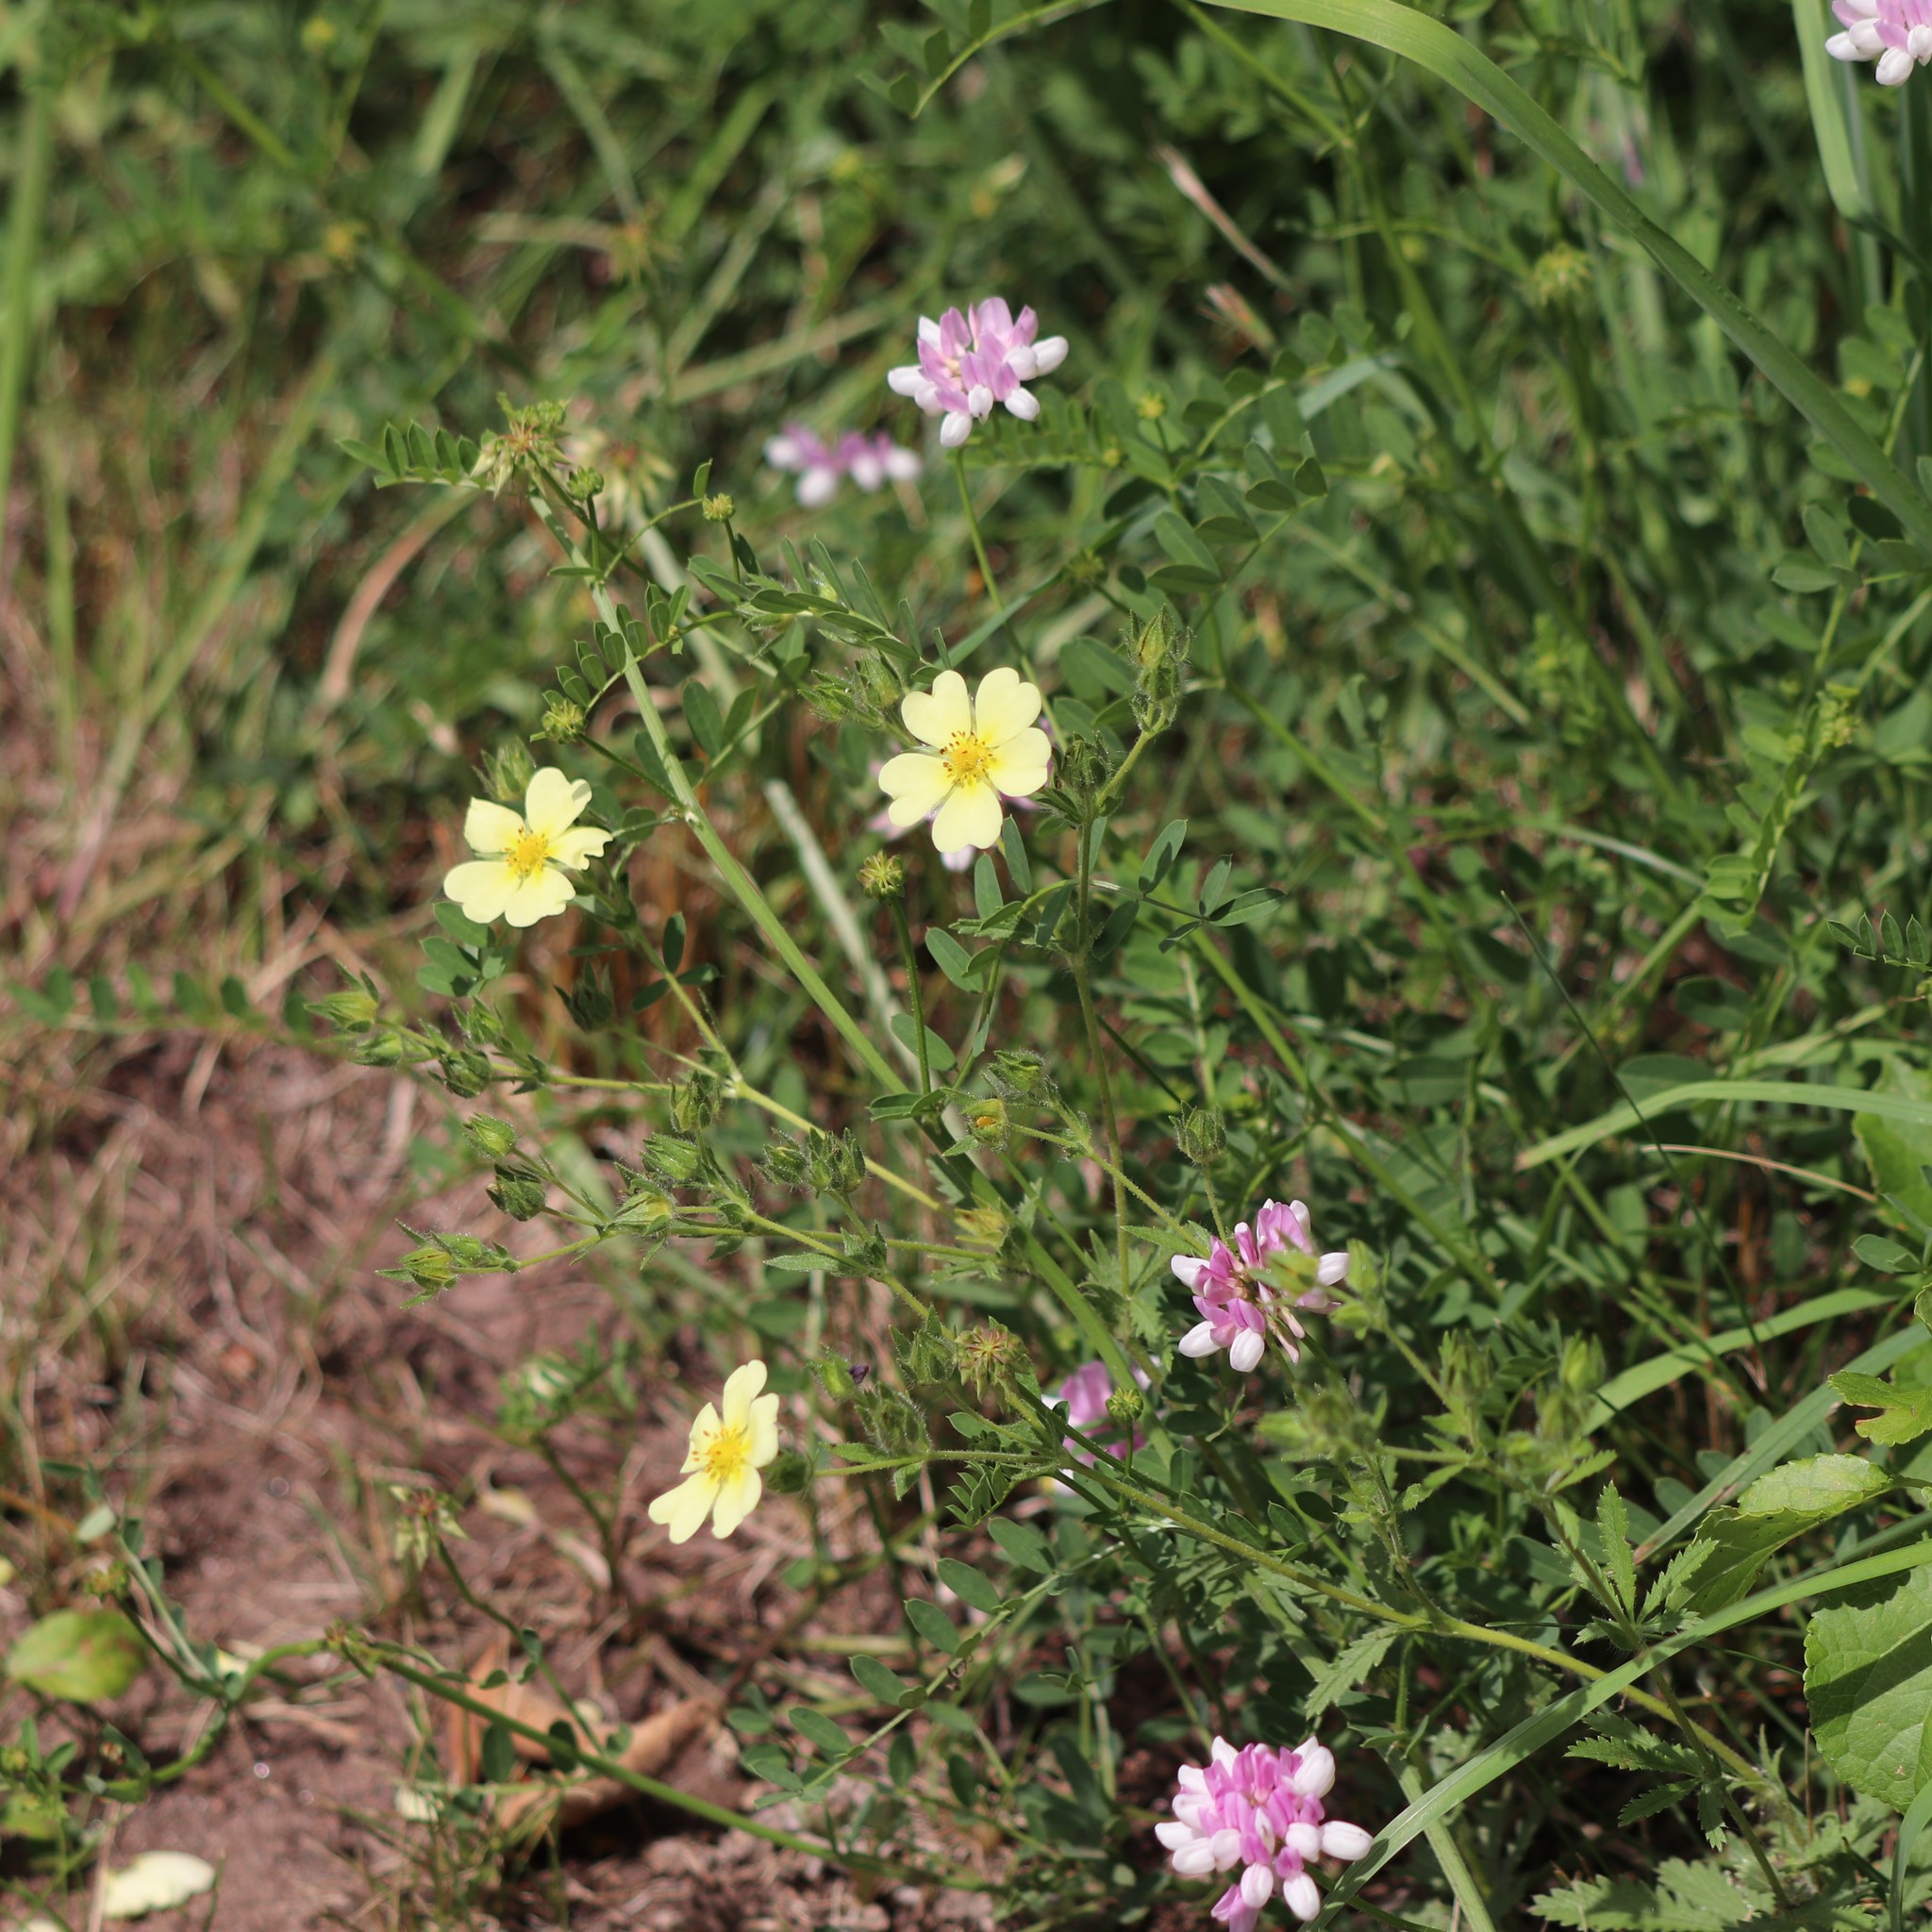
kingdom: Plantae
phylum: Tracheophyta
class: Magnoliopsida
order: Rosales
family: Rosaceae
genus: Potentilla
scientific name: Potentilla recta
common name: Sulphur cinquefoil
